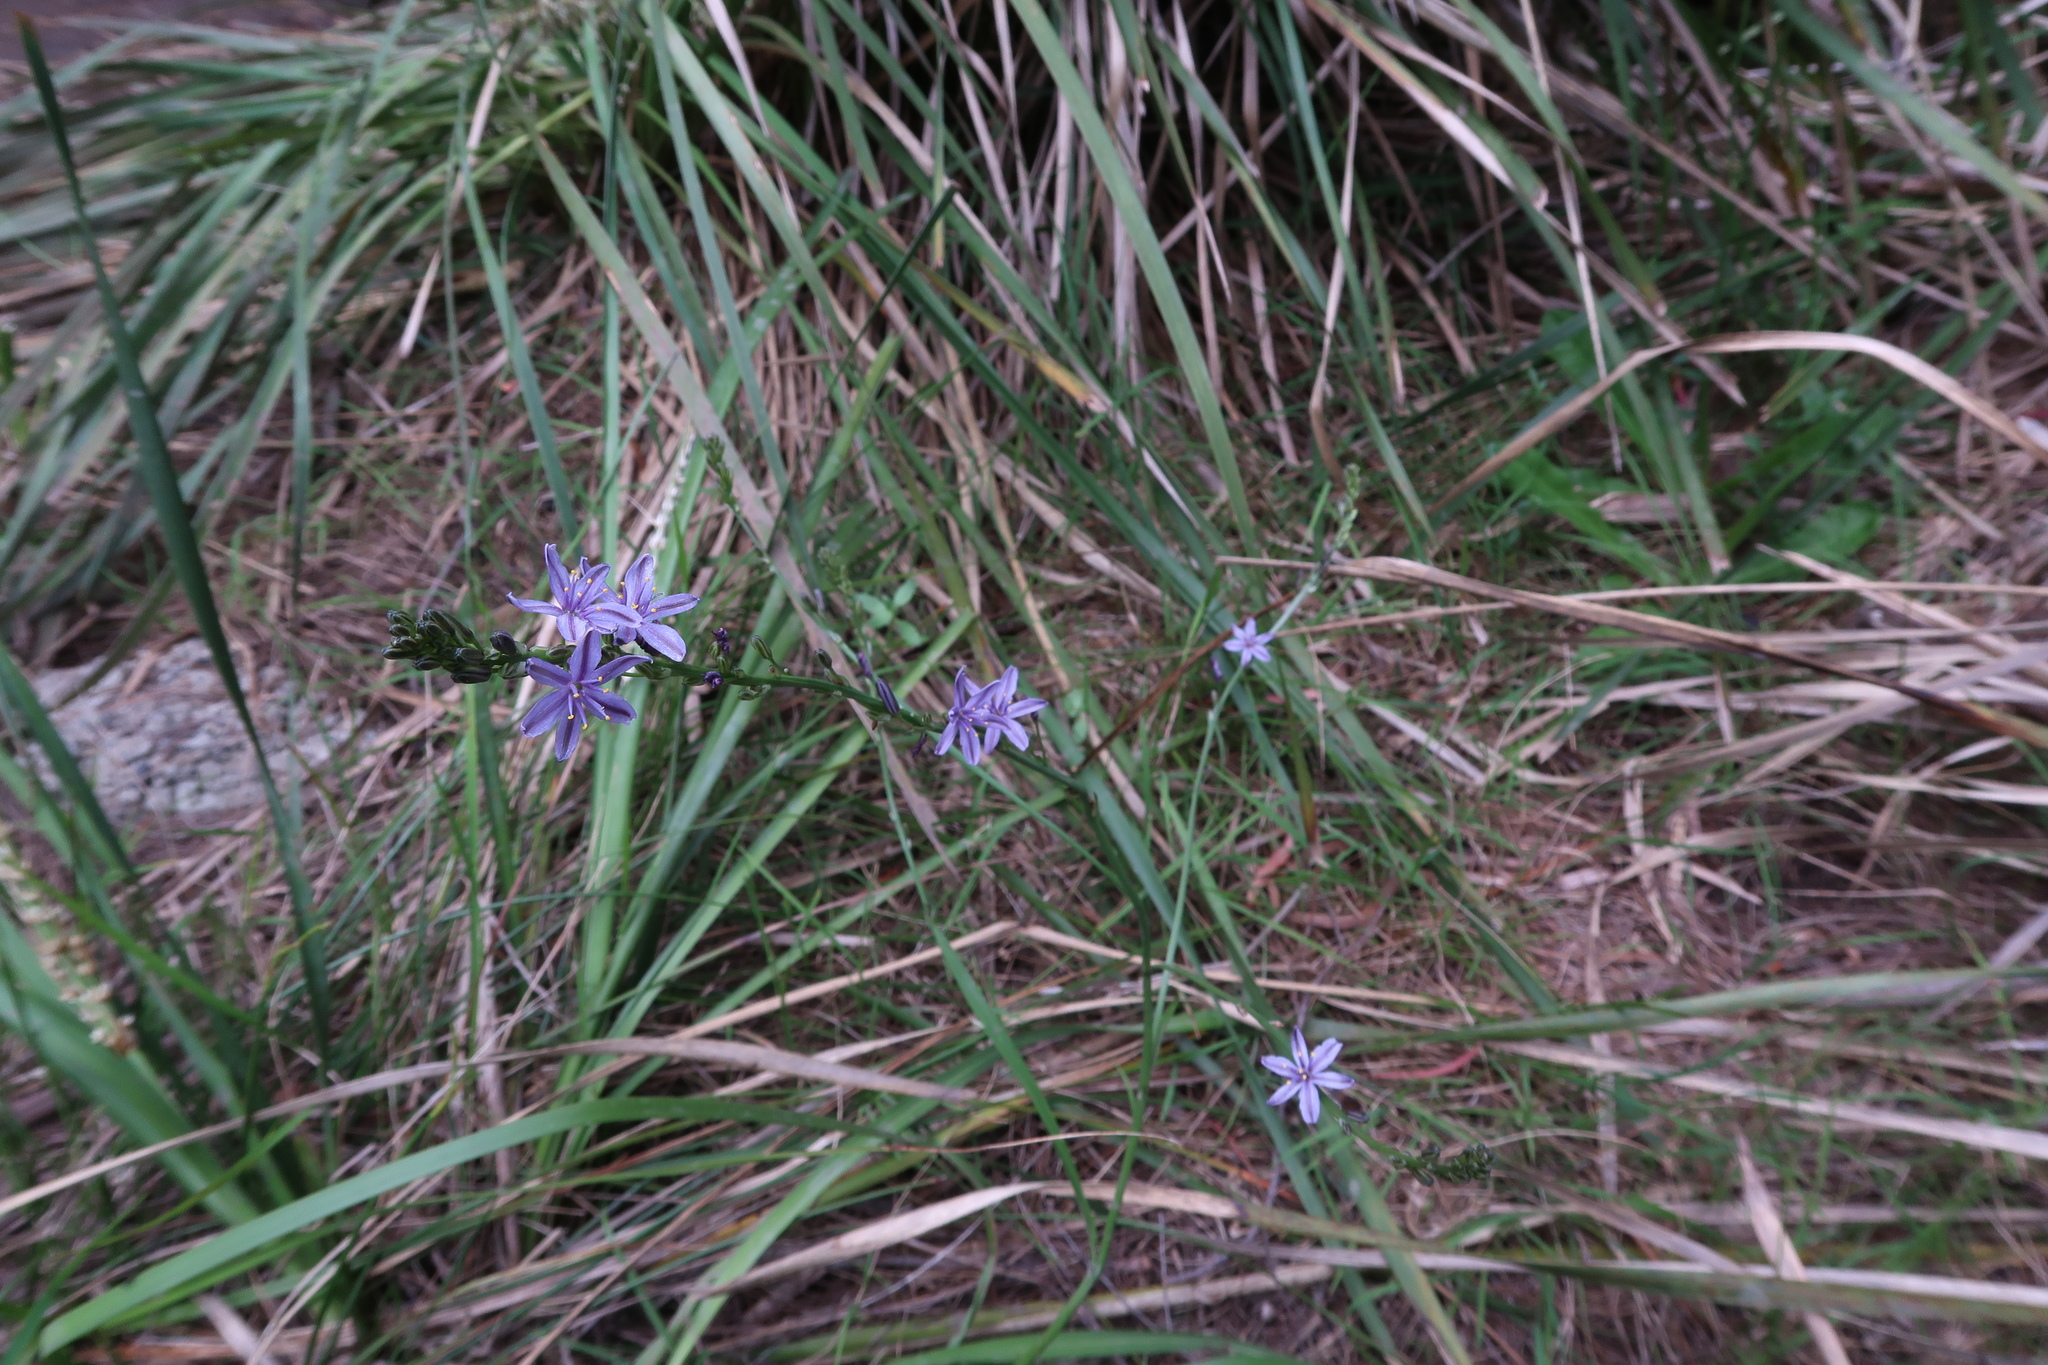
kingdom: Plantae
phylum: Tracheophyta
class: Liliopsida
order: Asparagales
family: Asphodelaceae
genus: Caesia
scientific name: Caesia calliantha
